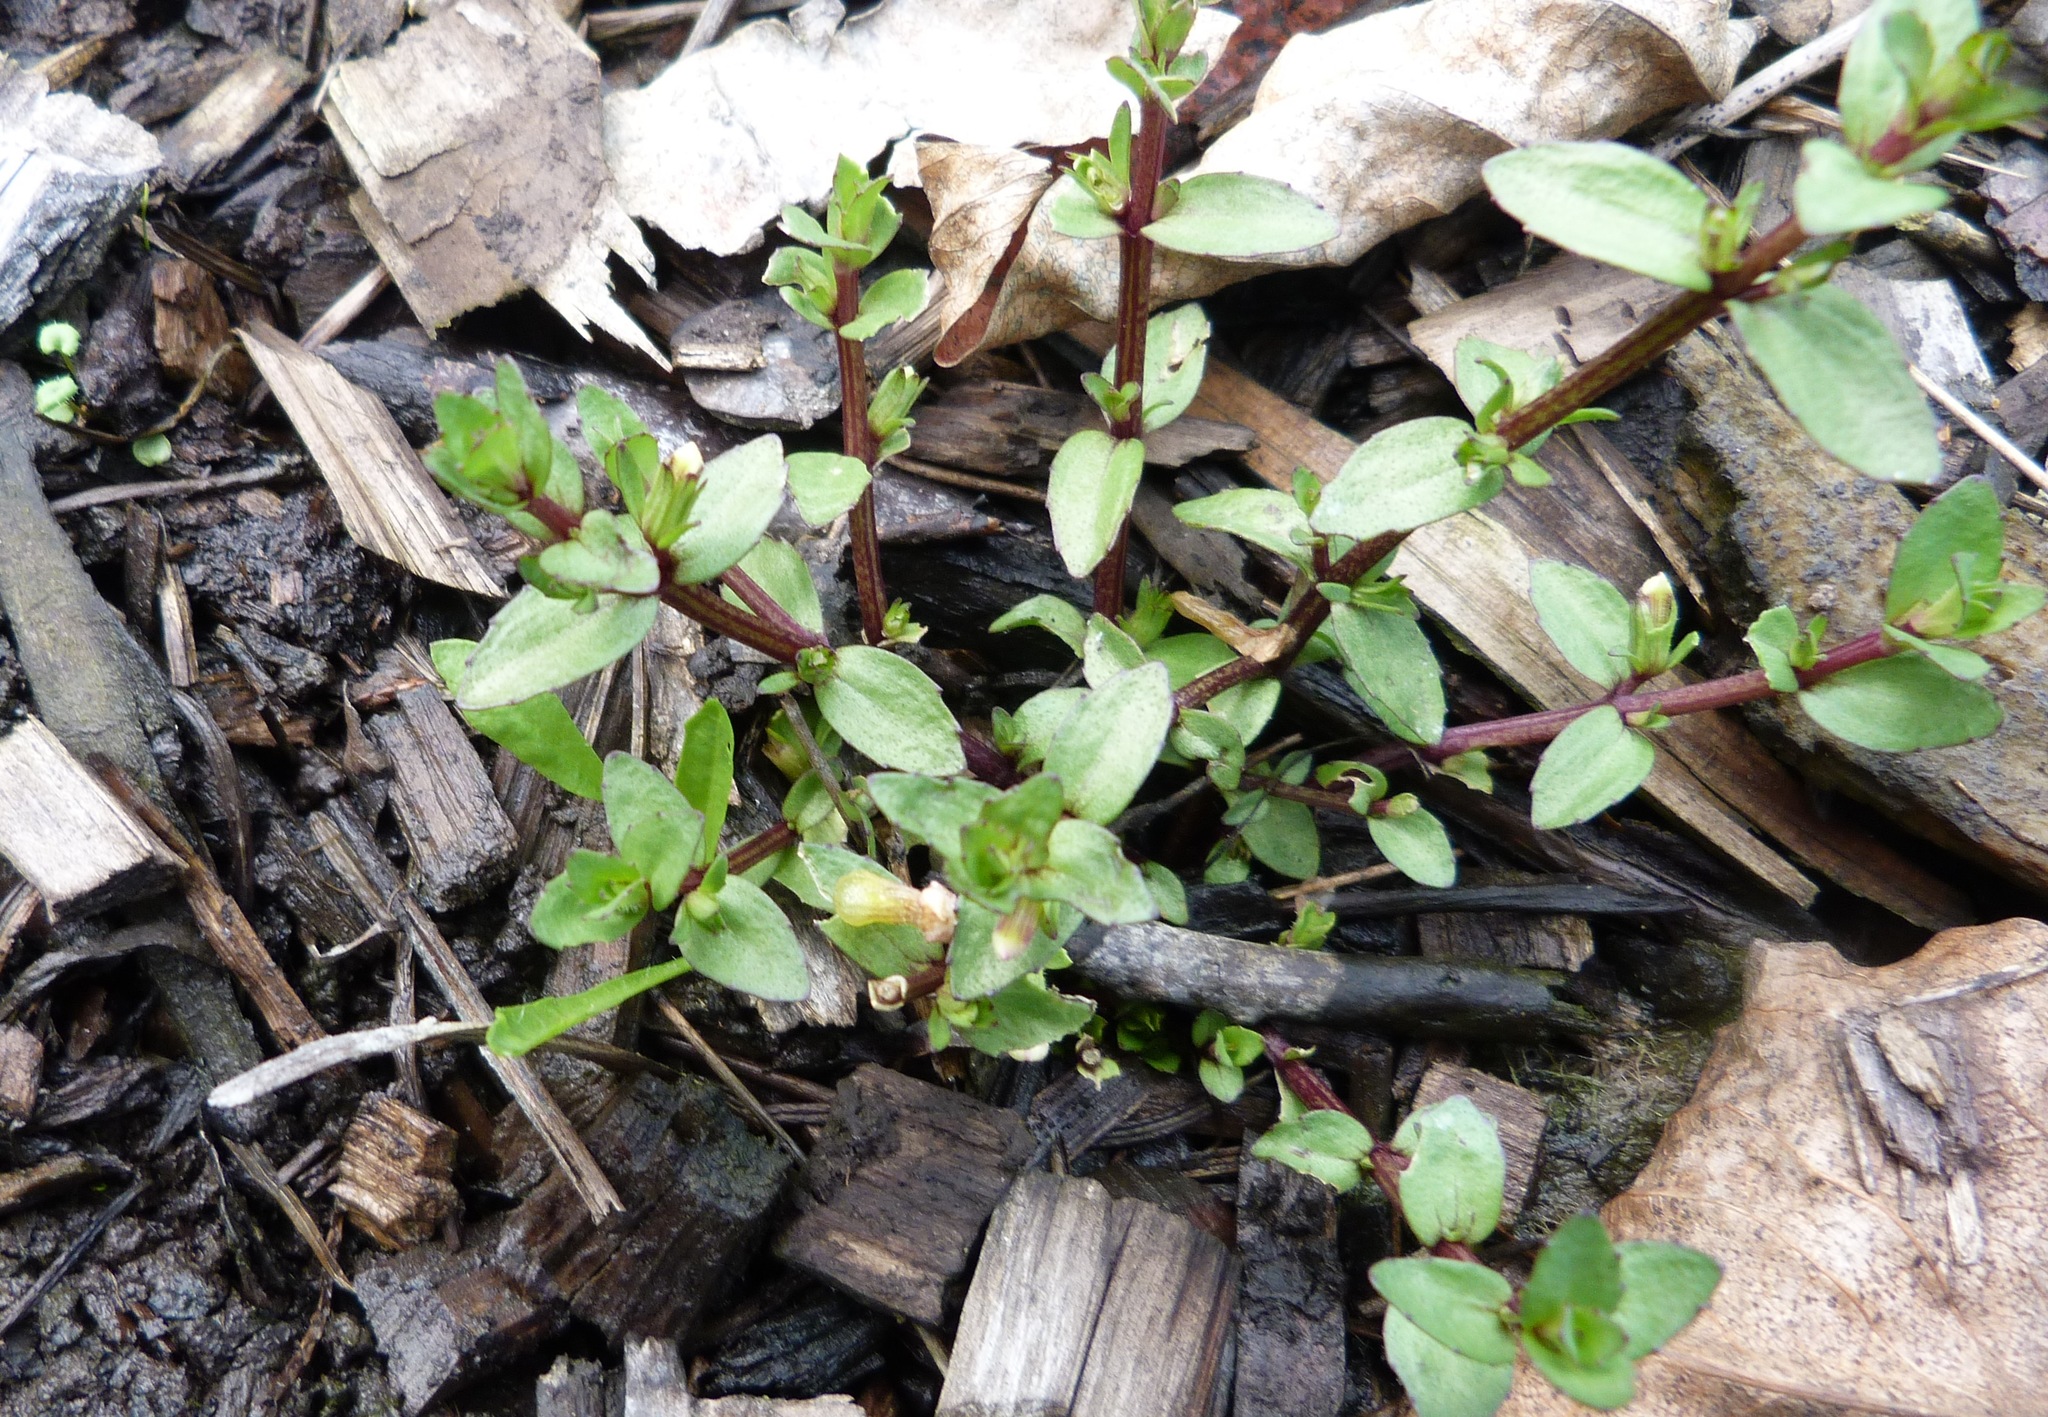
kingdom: Plantae
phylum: Tracheophyta
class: Magnoliopsida
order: Lamiales
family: Plantaginaceae
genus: Gratiola
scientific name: Gratiola sexdentata
